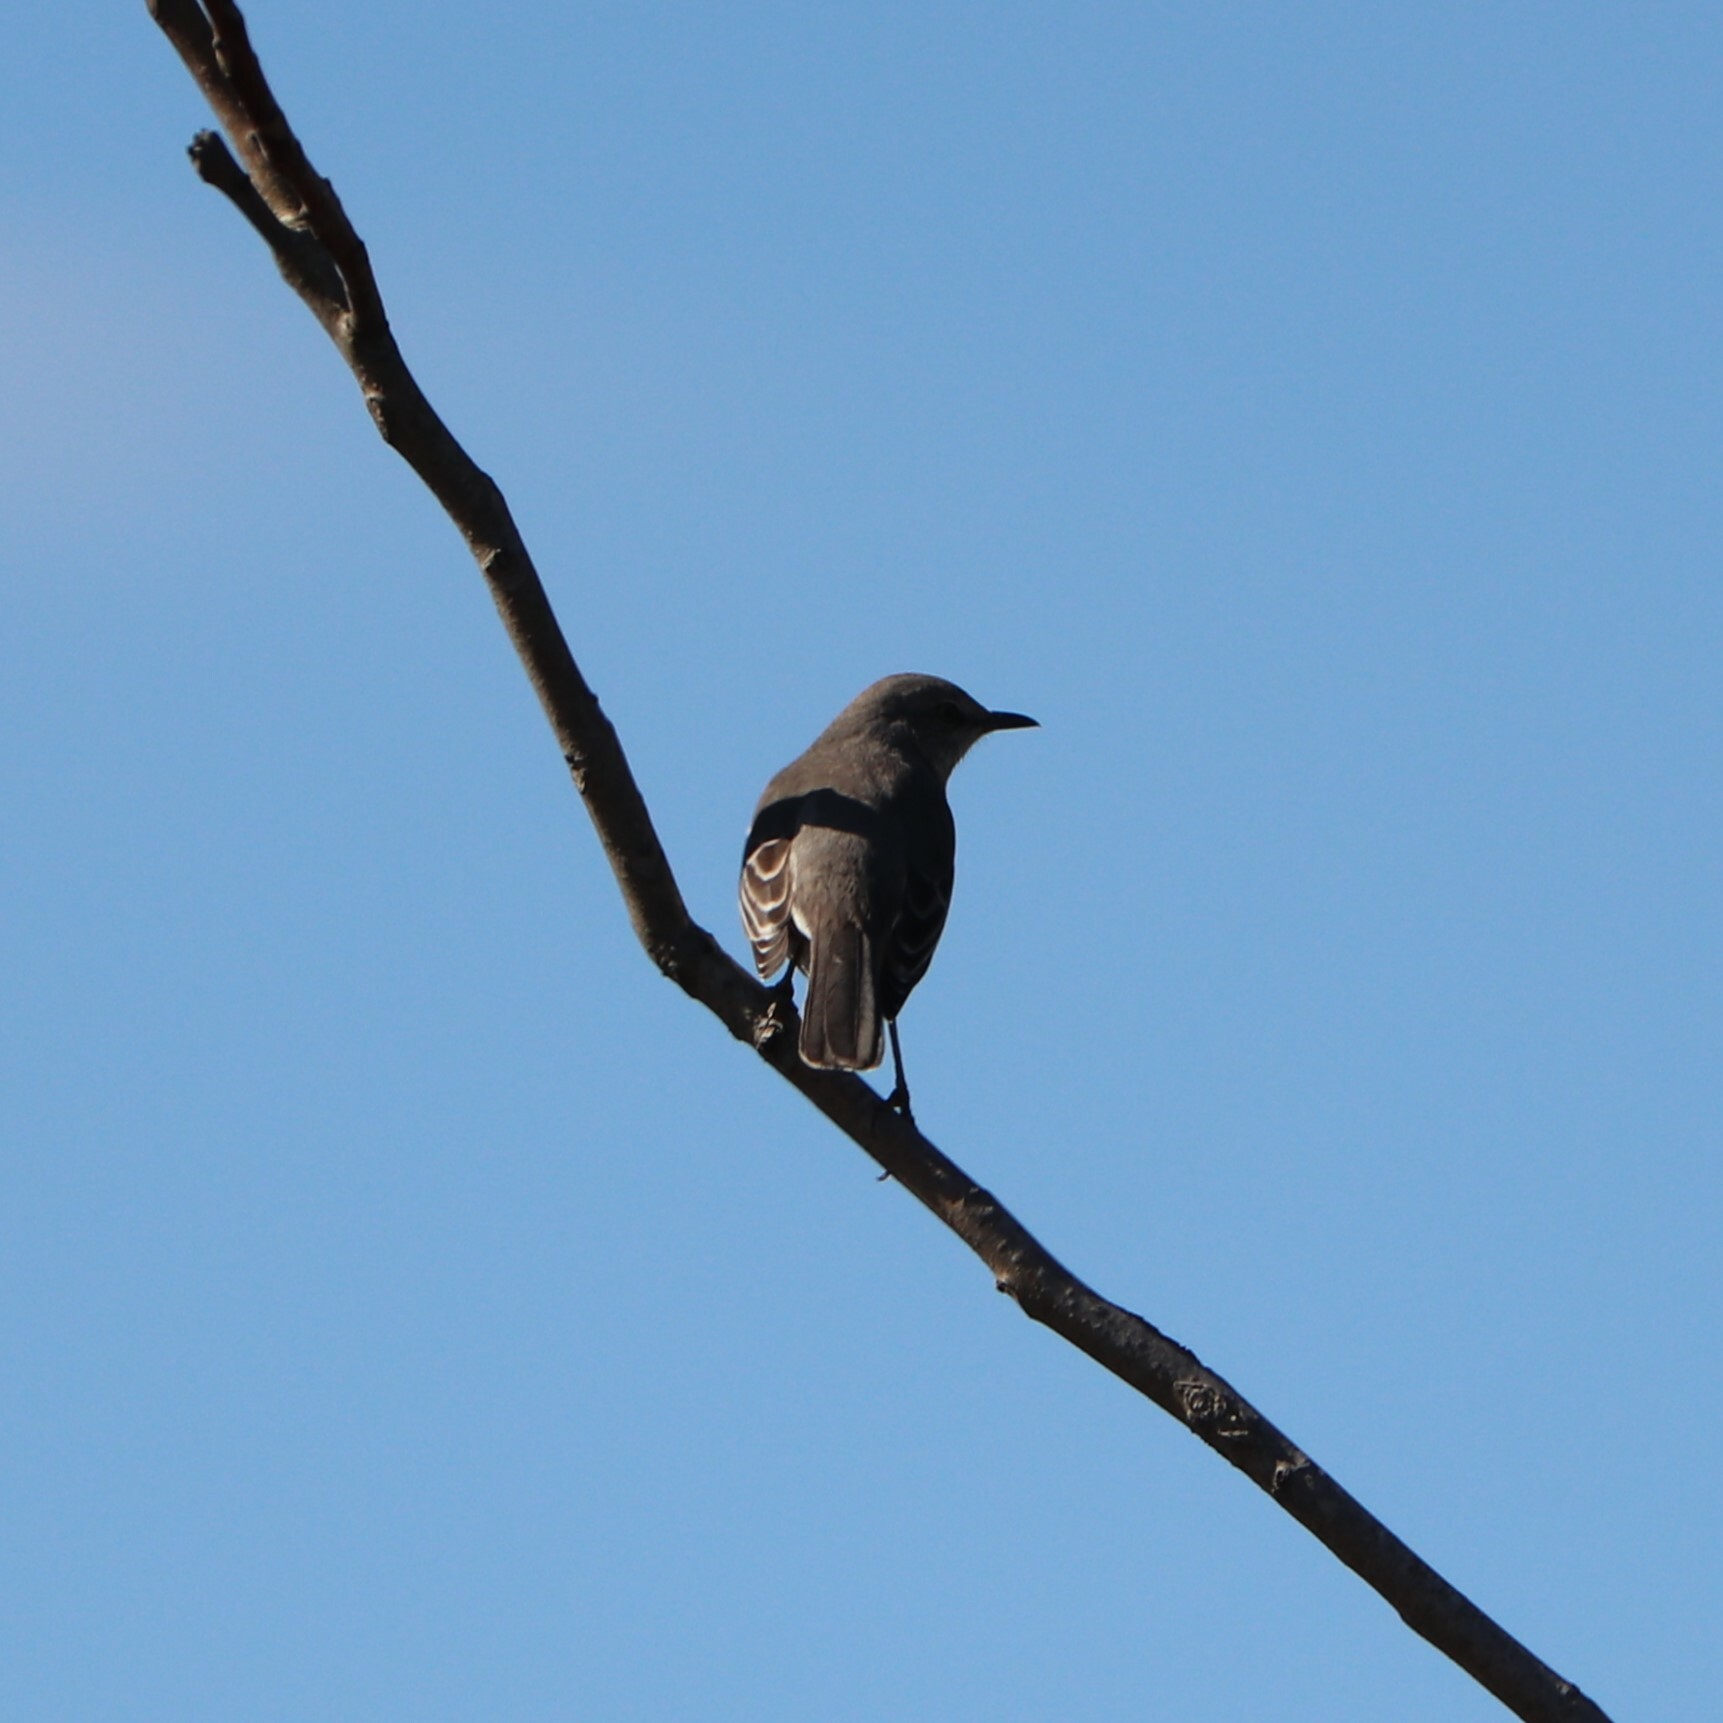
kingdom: Animalia
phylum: Chordata
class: Aves
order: Passeriformes
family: Mimidae
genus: Mimus
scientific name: Mimus polyglottos
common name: Northern mockingbird
